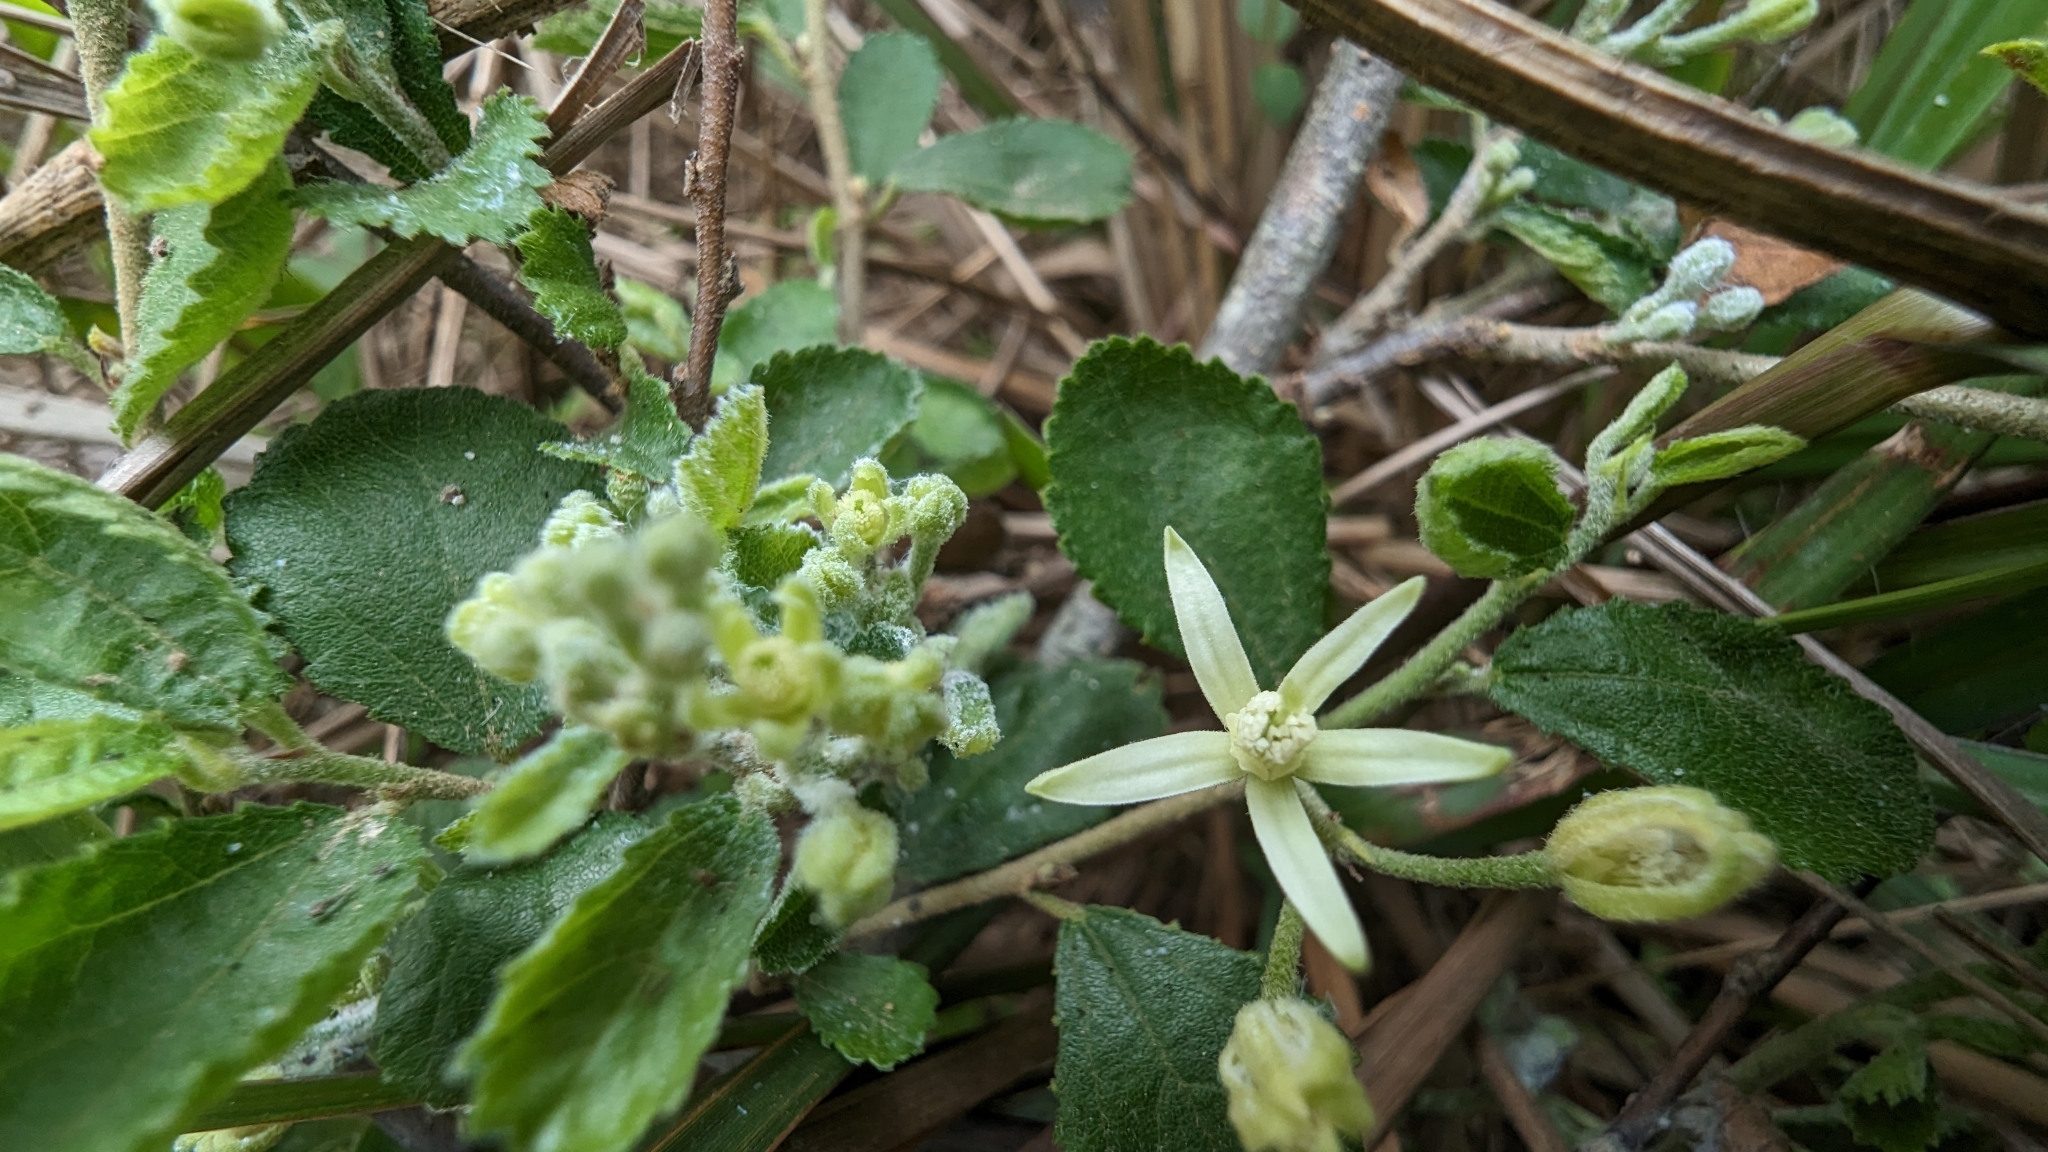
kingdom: Plantae
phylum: Tracheophyta
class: Magnoliopsida
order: Malvales
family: Malvaceae
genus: Grewia
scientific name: Grewia rhombifolia
